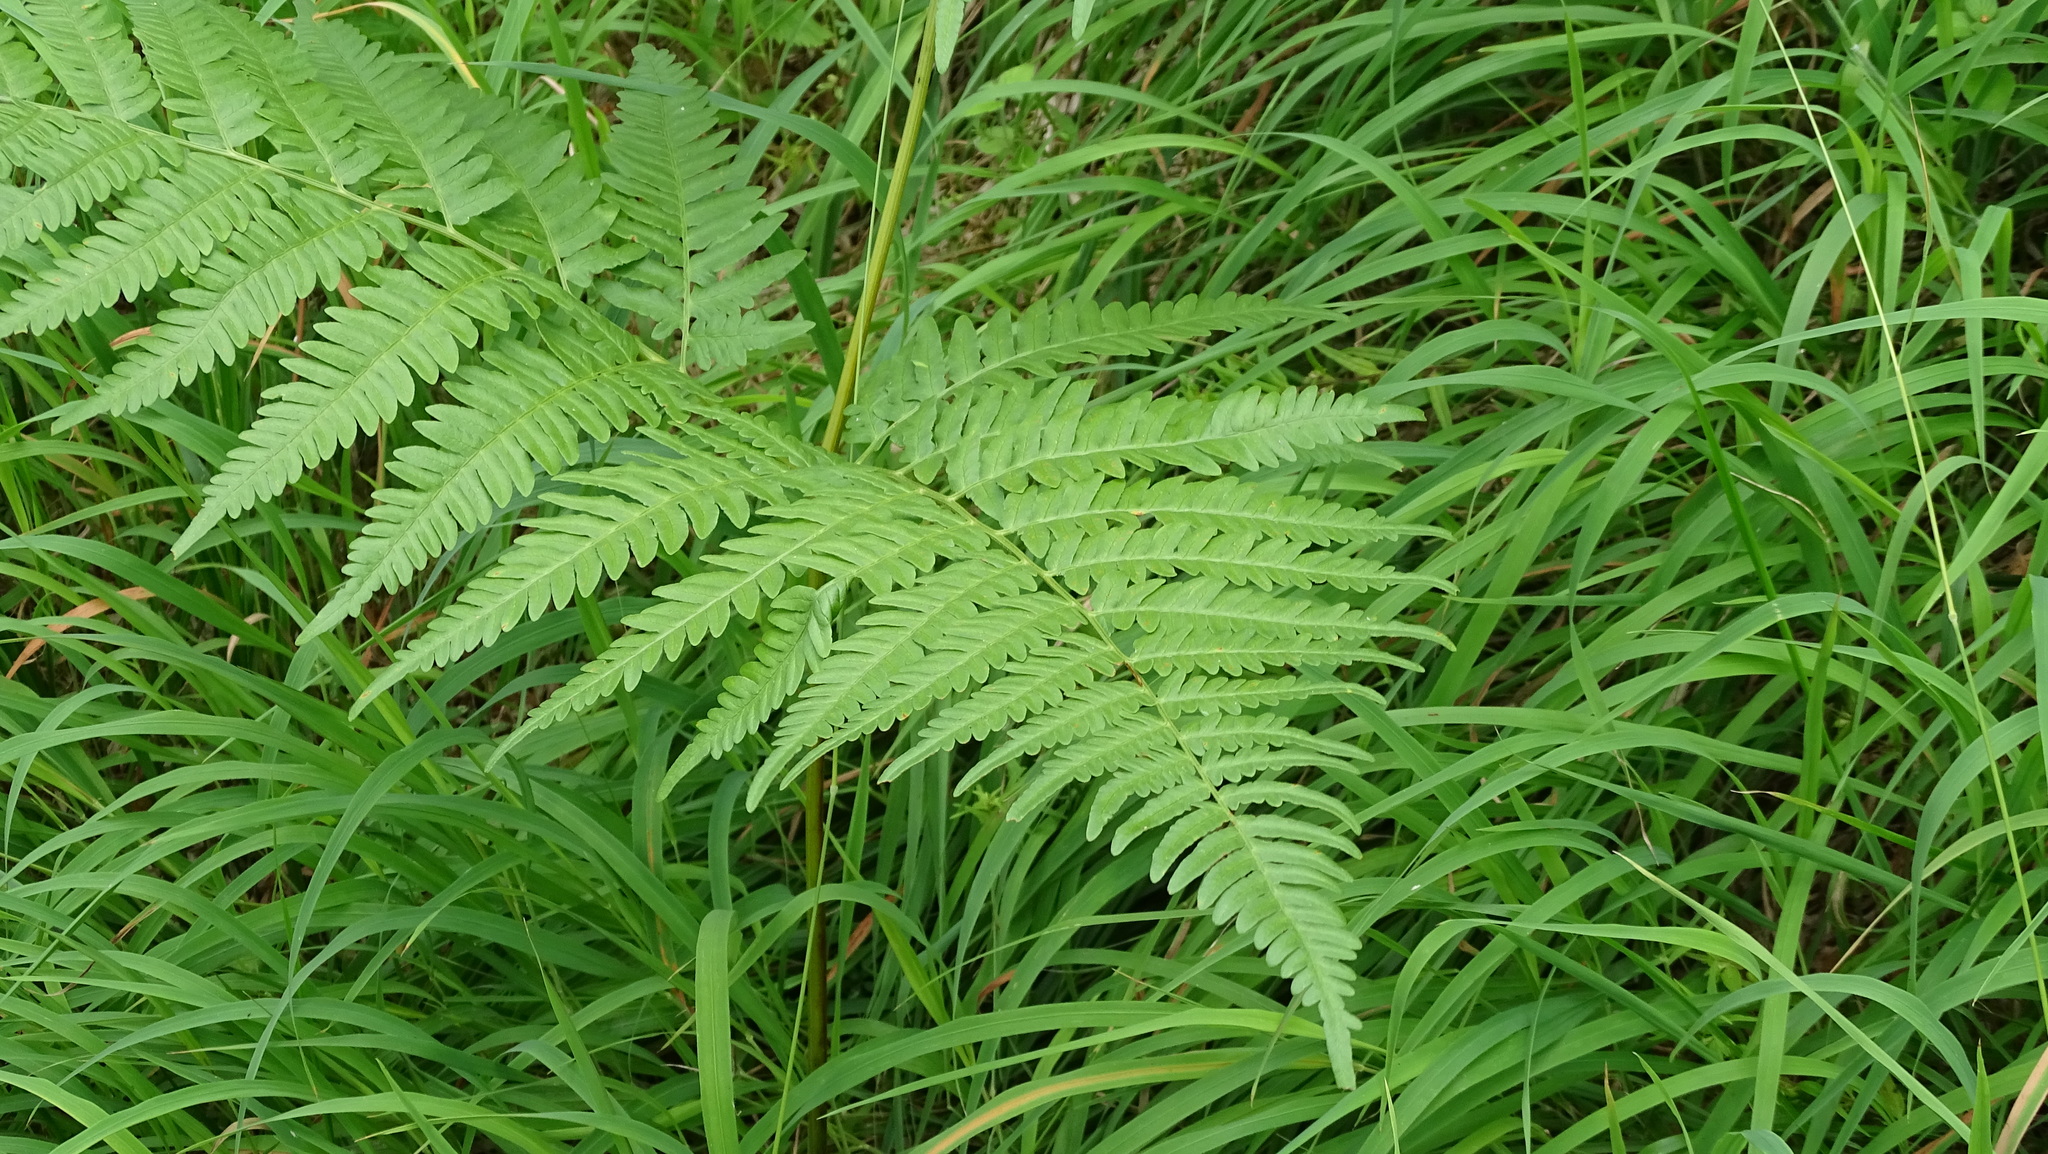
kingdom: Plantae
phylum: Tracheophyta
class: Polypodiopsida
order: Polypodiales
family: Athyriaceae
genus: Athyrium
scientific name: Athyrium filix-femina
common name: Lady fern
